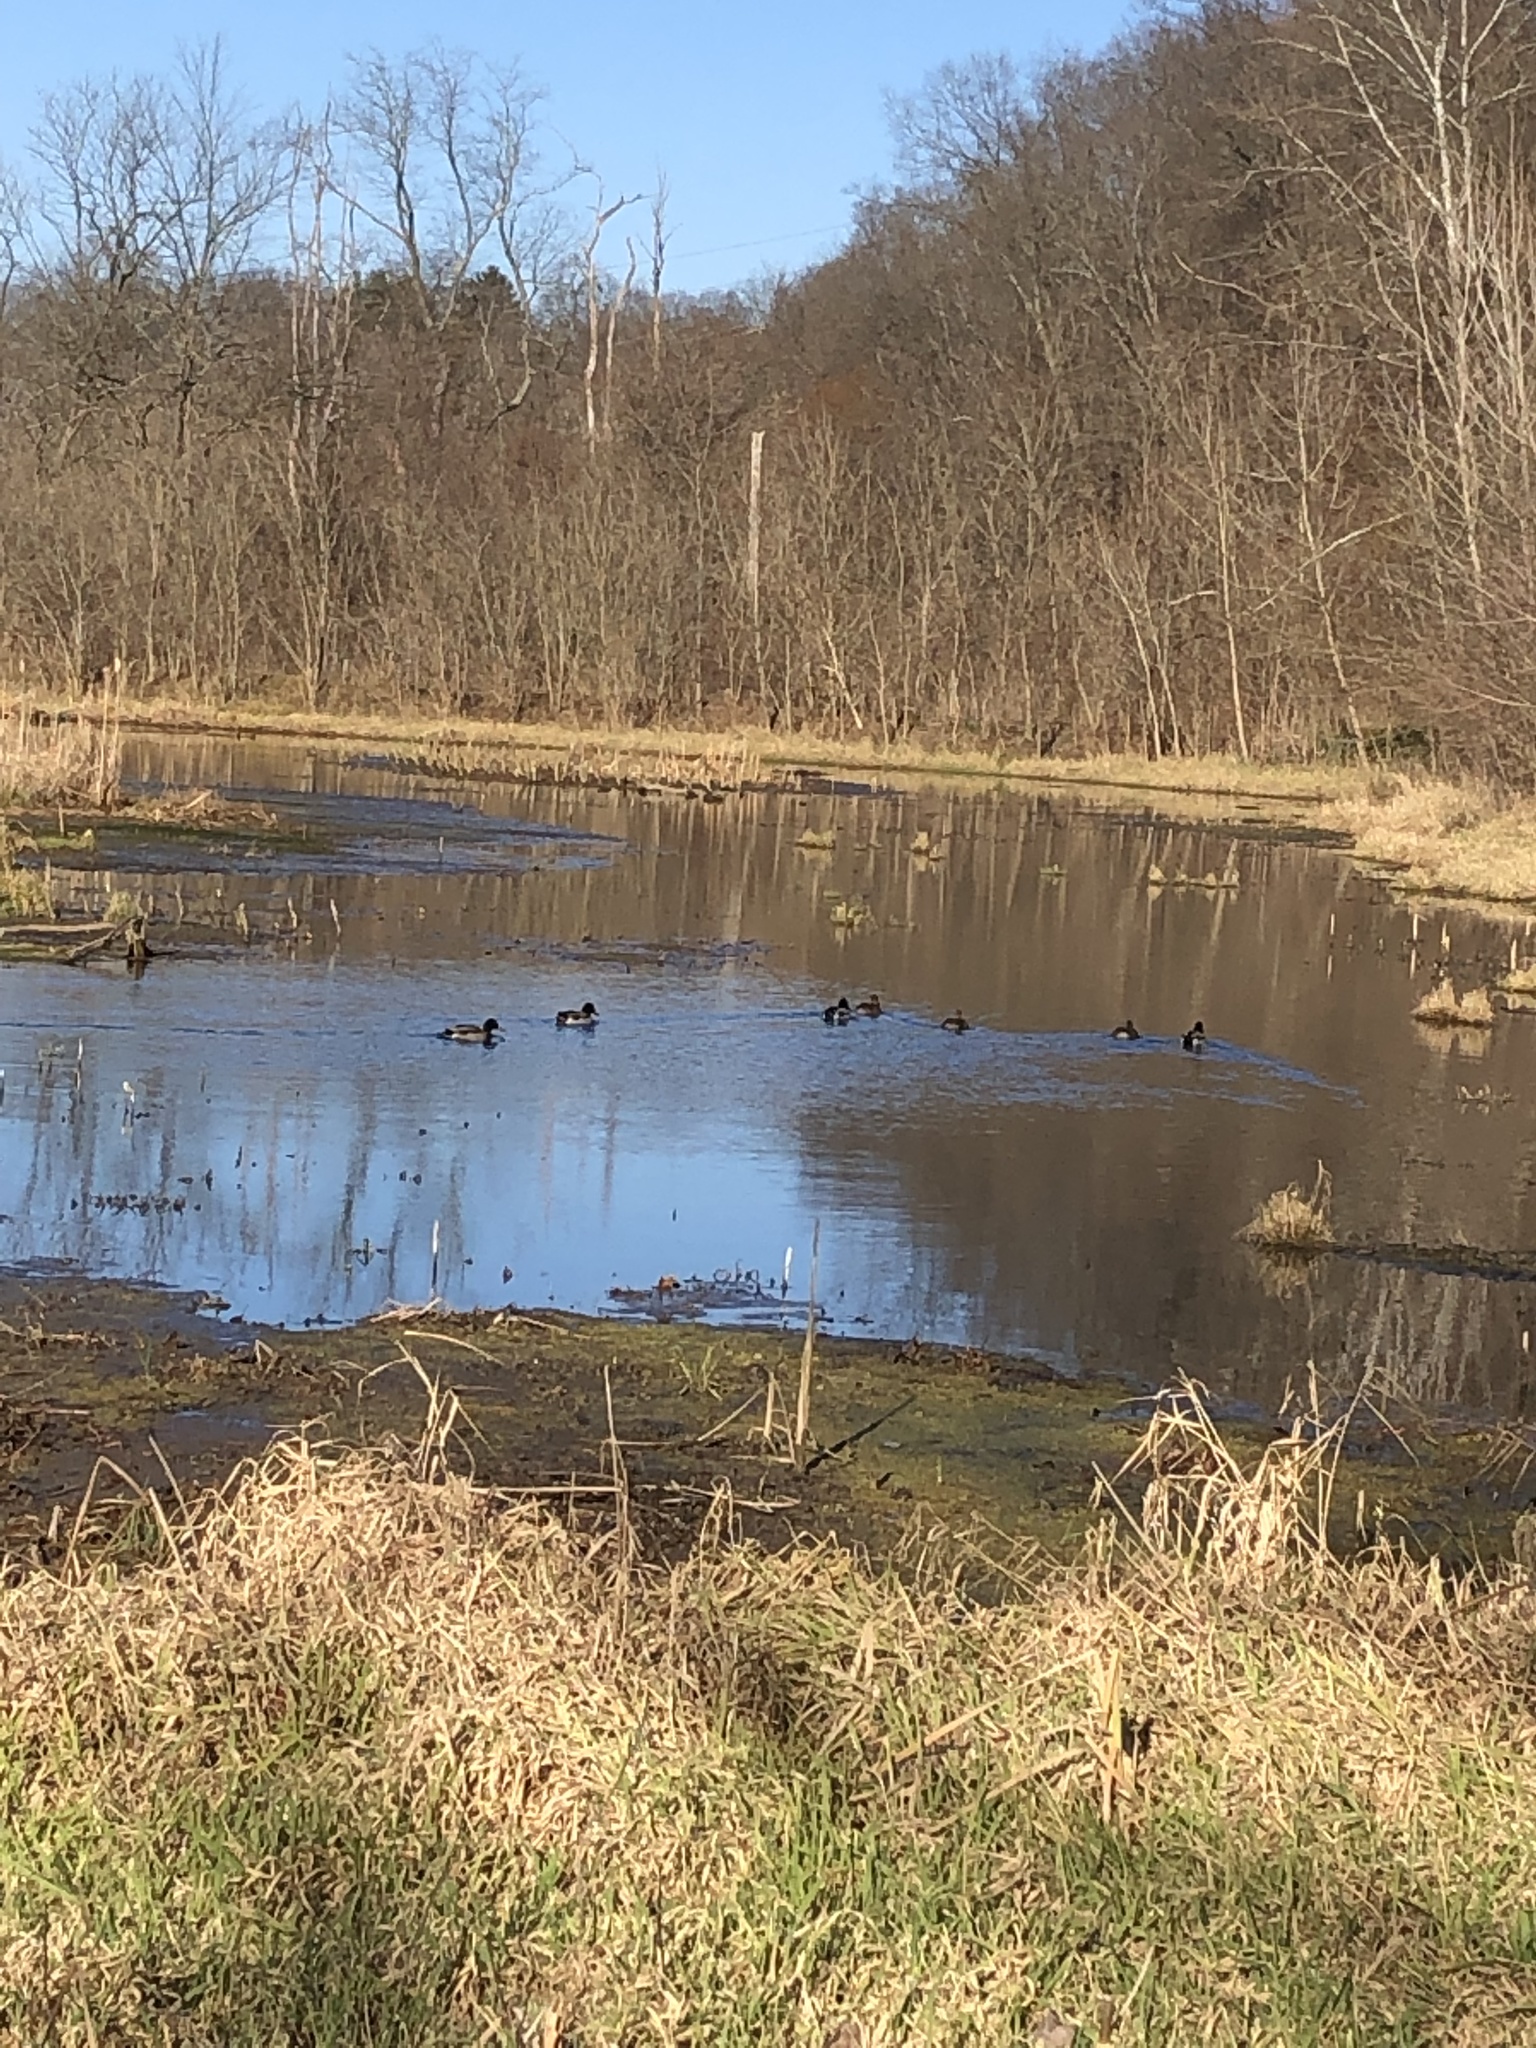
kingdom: Animalia
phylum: Chordata
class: Aves
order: Anseriformes
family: Anatidae
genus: Anas
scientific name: Anas platyrhynchos
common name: Mallard
